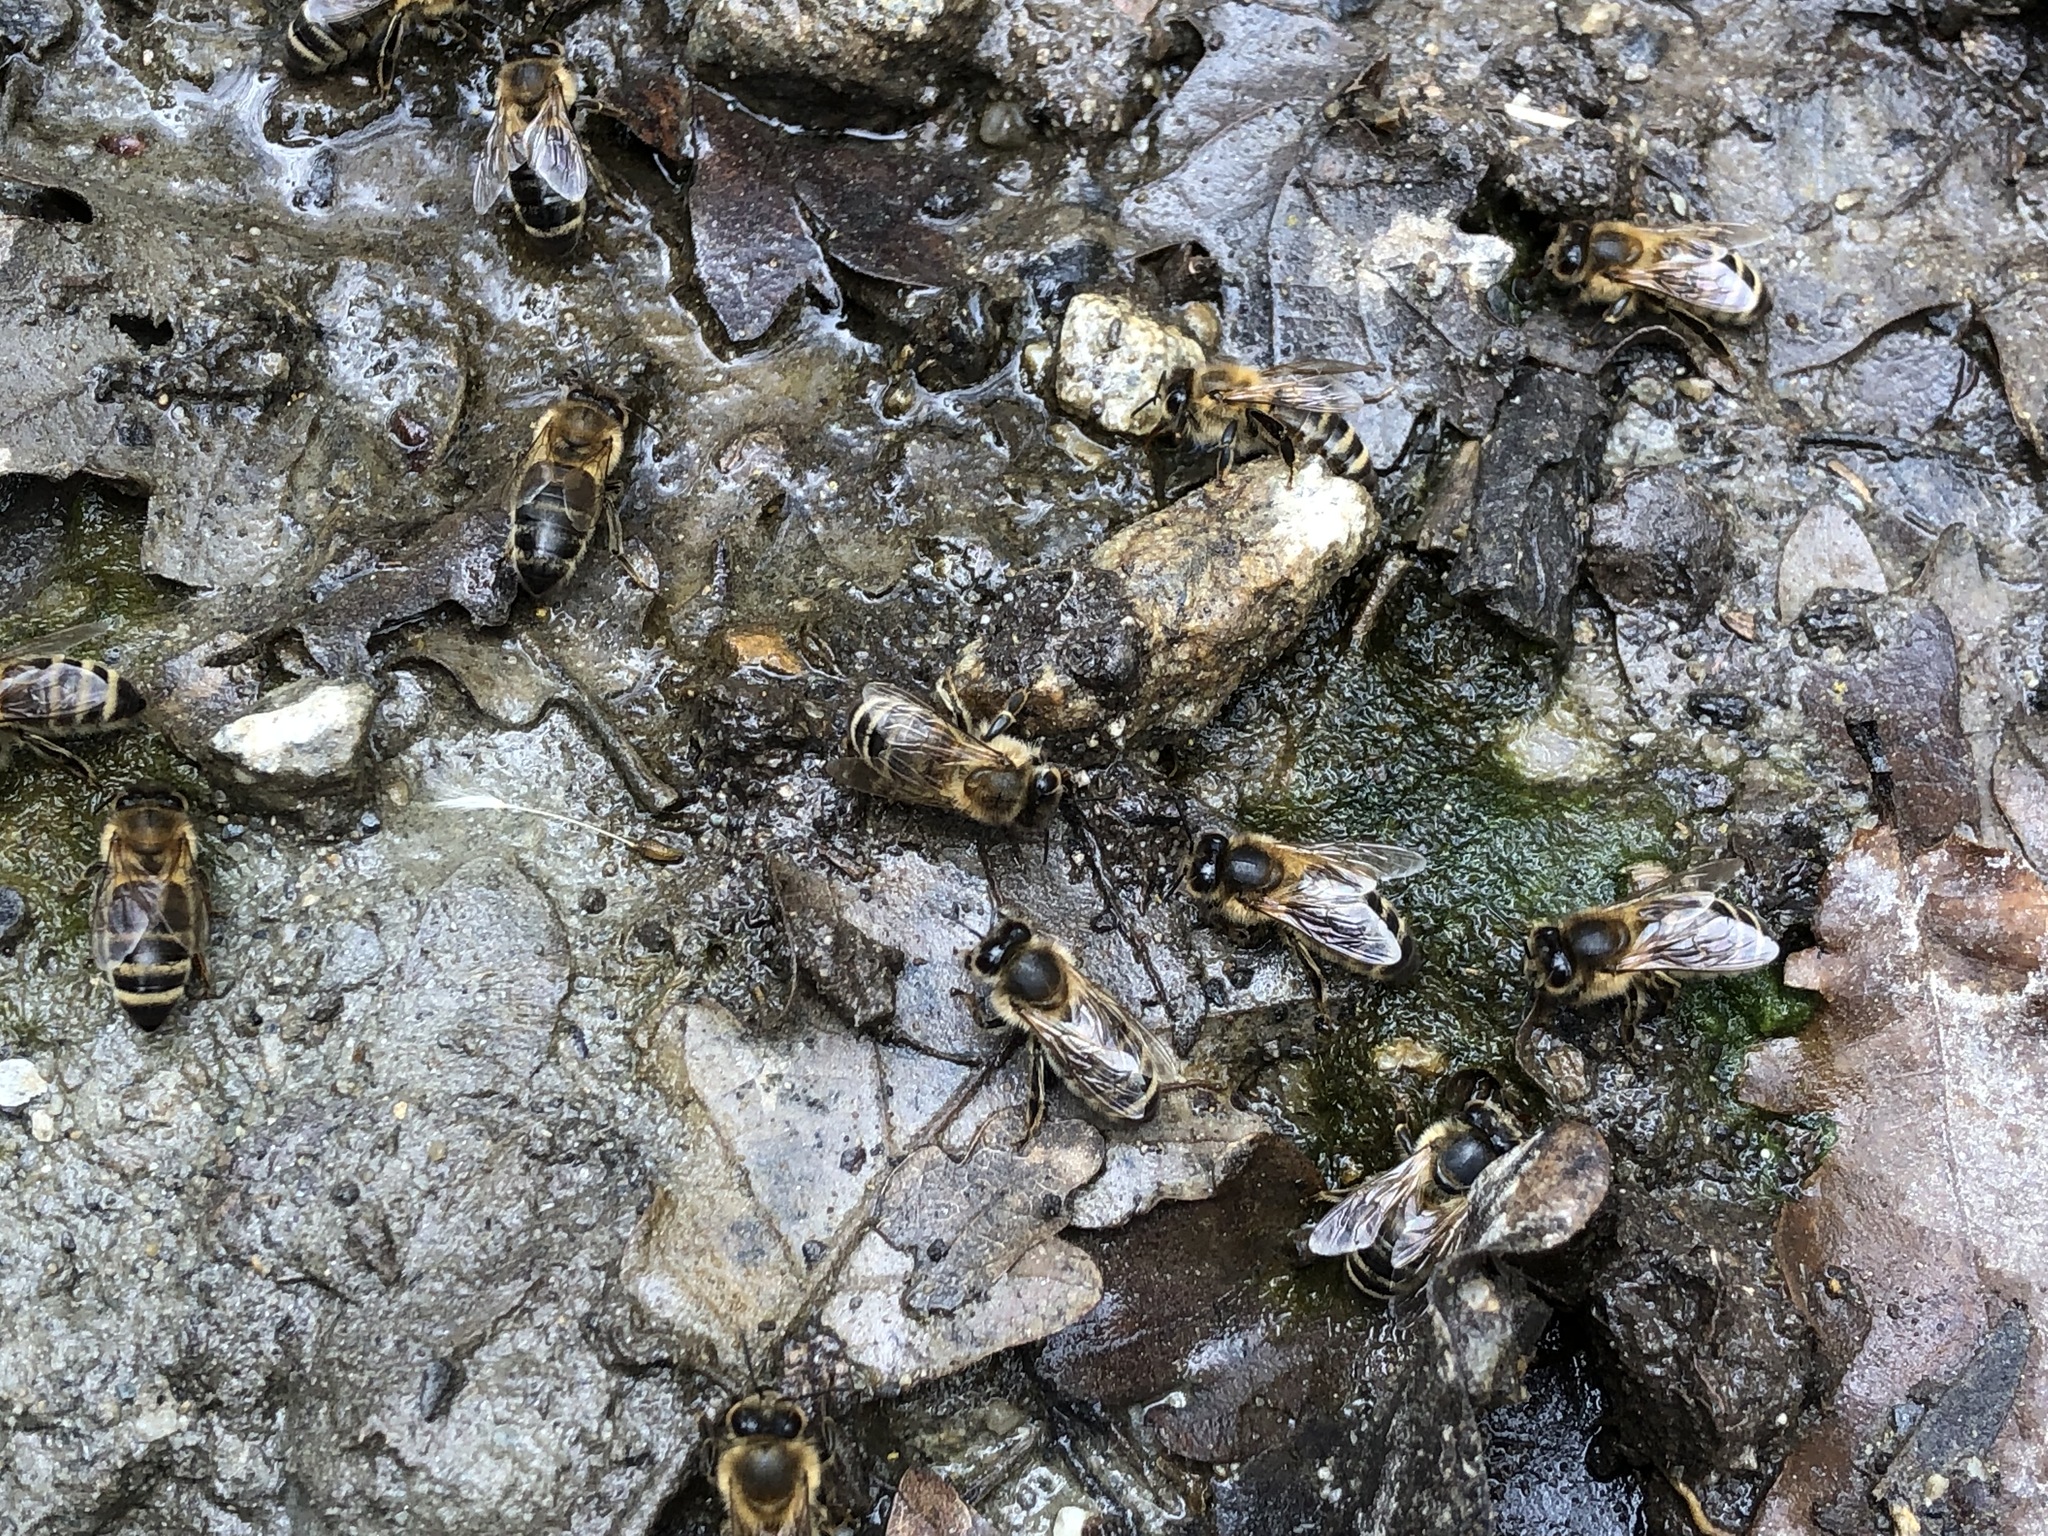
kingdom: Animalia
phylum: Arthropoda
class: Insecta
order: Hymenoptera
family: Apidae
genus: Apis
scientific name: Apis mellifera
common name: Honey bee
